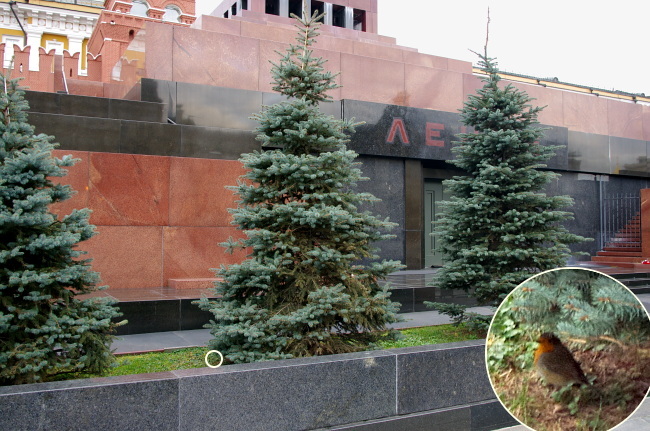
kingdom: Animalia
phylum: Chordata
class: Aves
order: Passeriformes
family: Muscicapidae
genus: Erithacus
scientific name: Erithacus rubecula
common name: European robin
